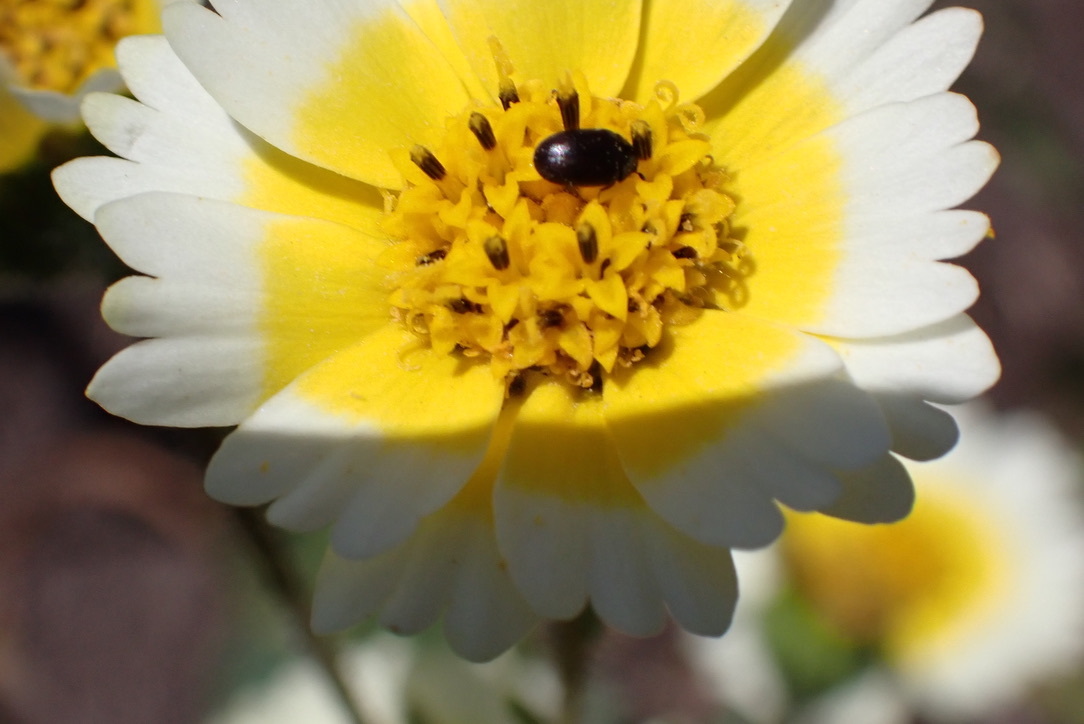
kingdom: Plantae
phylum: Tracheophyta
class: Magnoliopsida
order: Asterales
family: Asteraceae
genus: Layia
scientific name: Layia platyglossa
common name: Tidy-tips
